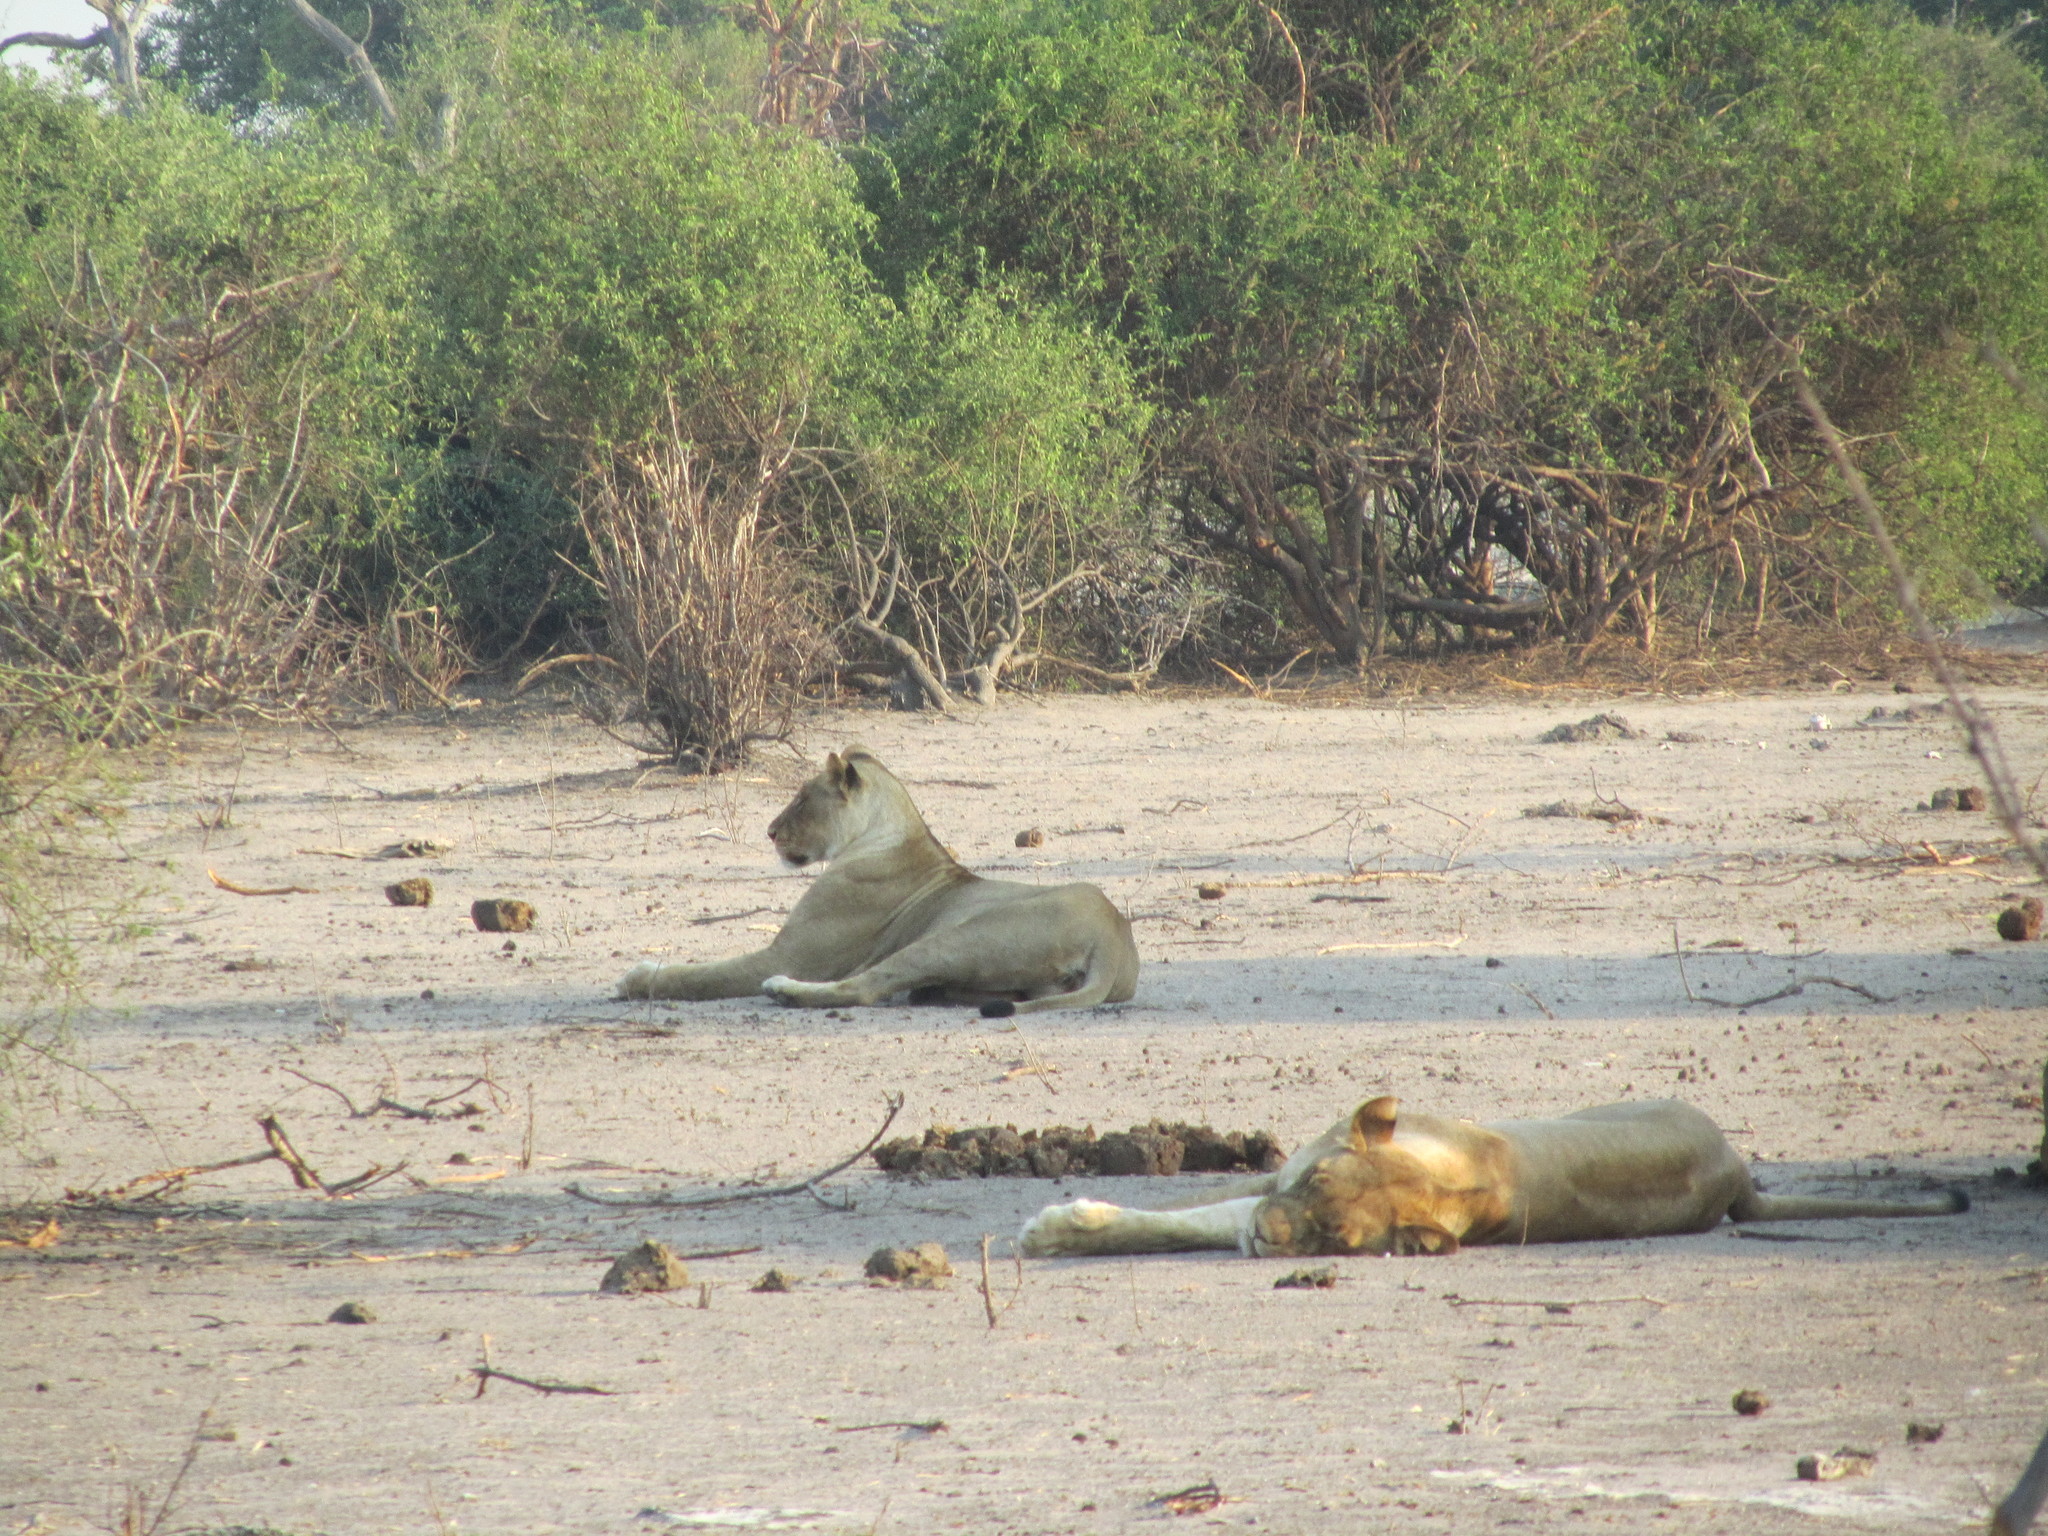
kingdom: Animalia
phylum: Chordata
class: Mammalia
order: Carnivora
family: Felidae
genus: Panthera
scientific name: Panthera leo
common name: Lion
